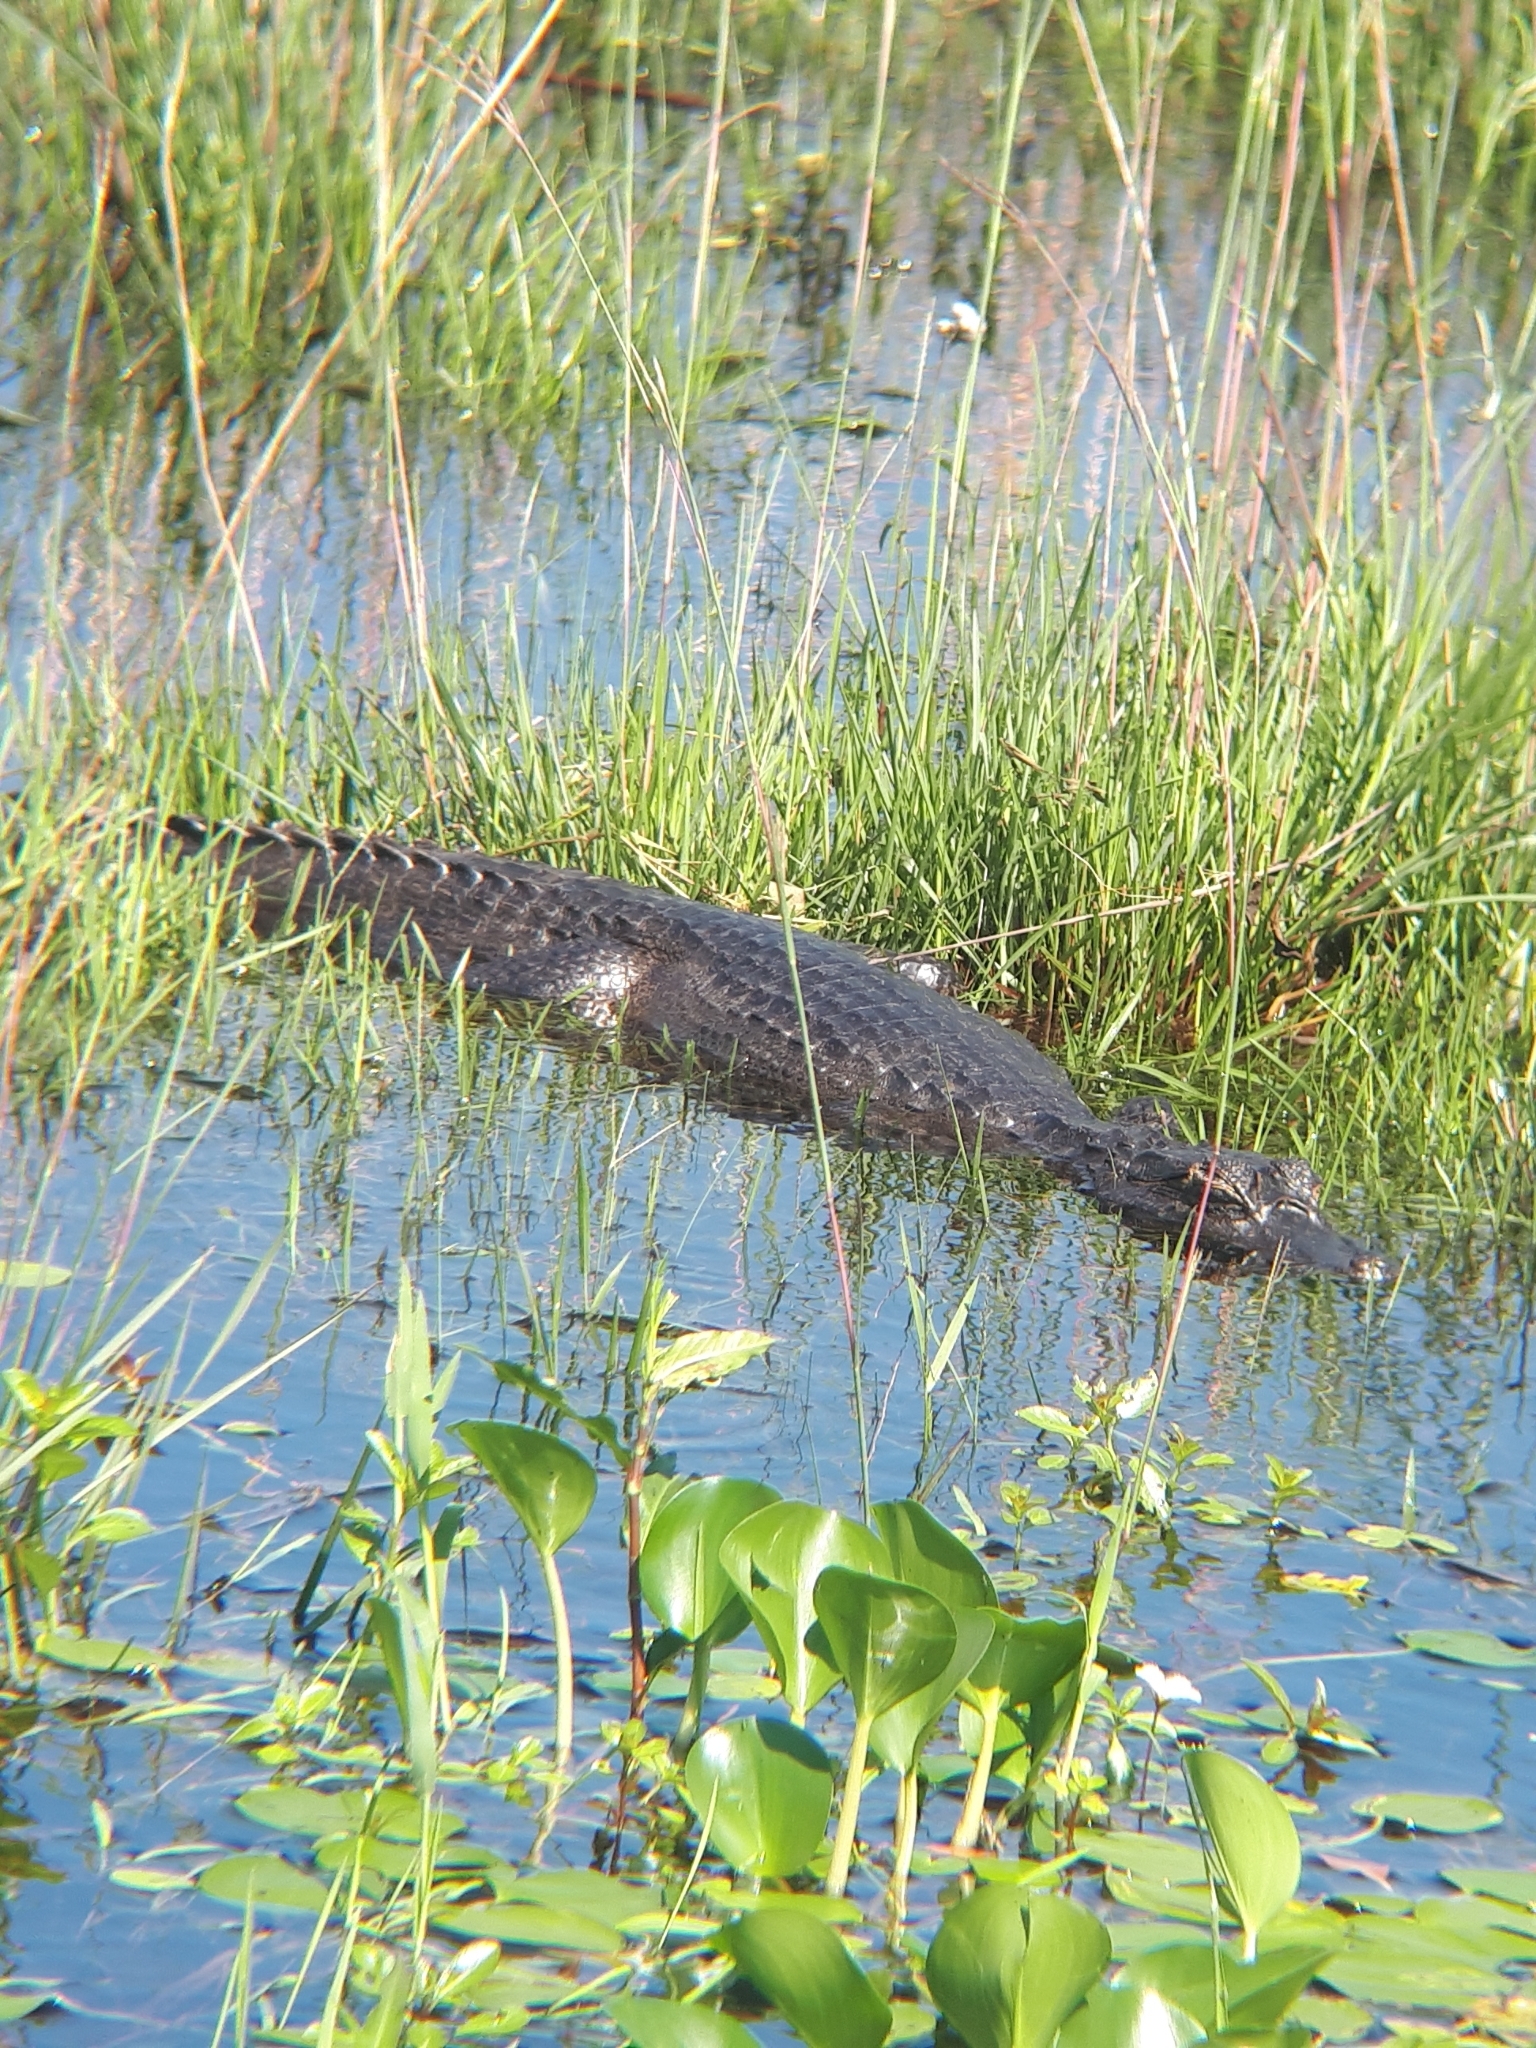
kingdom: Animalia
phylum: Chordata
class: Crocodylia
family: Alligatoridae
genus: Caiman
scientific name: Caiman yacare
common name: Yacare caiman
